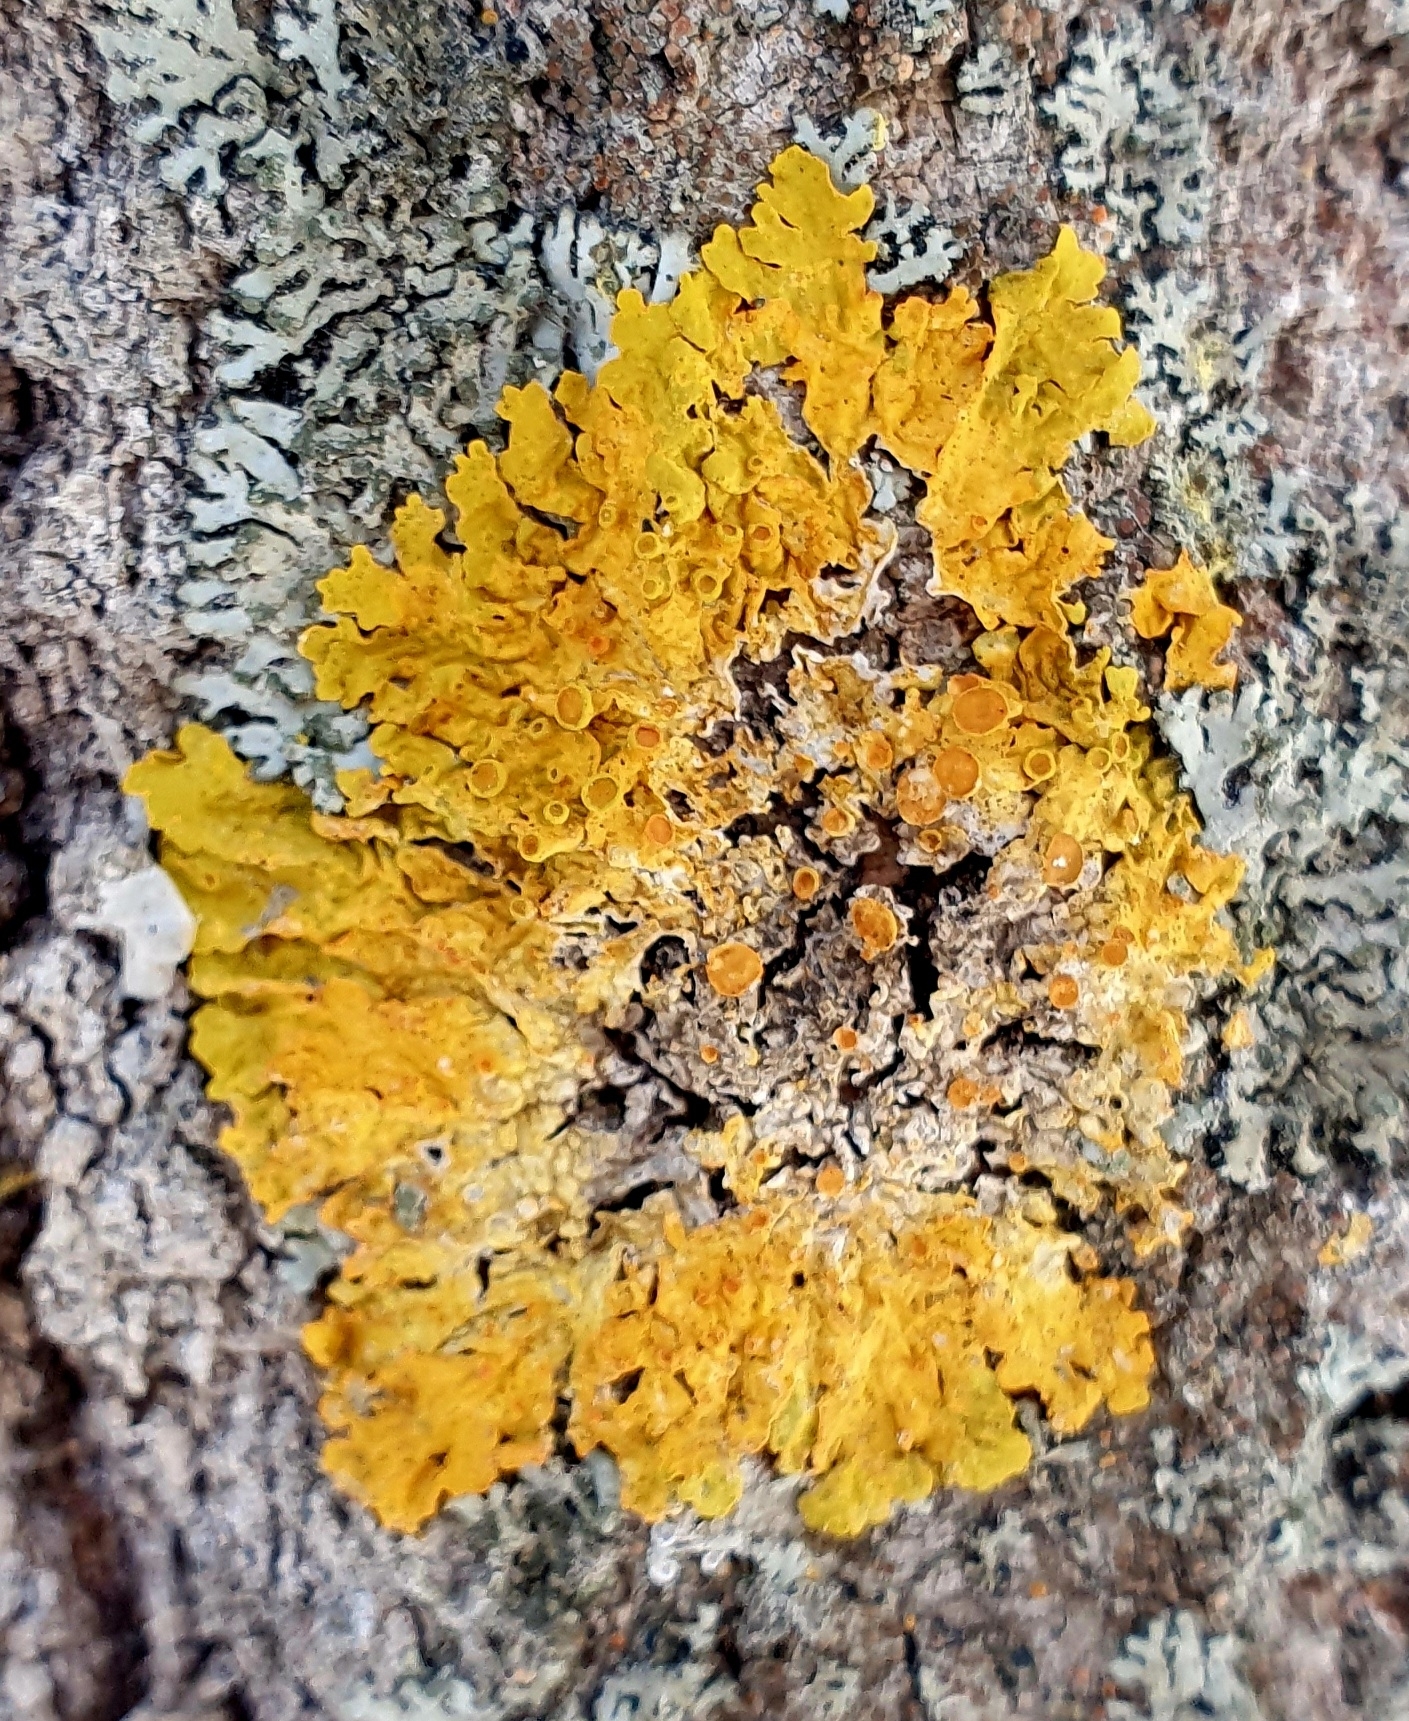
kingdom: Fungi
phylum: Ascomycota
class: Lecanoromycetes
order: Teloschistales
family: Teloschistaceae
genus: Xanthoria
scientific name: Xanthoria parietina
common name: Common orange lichen
